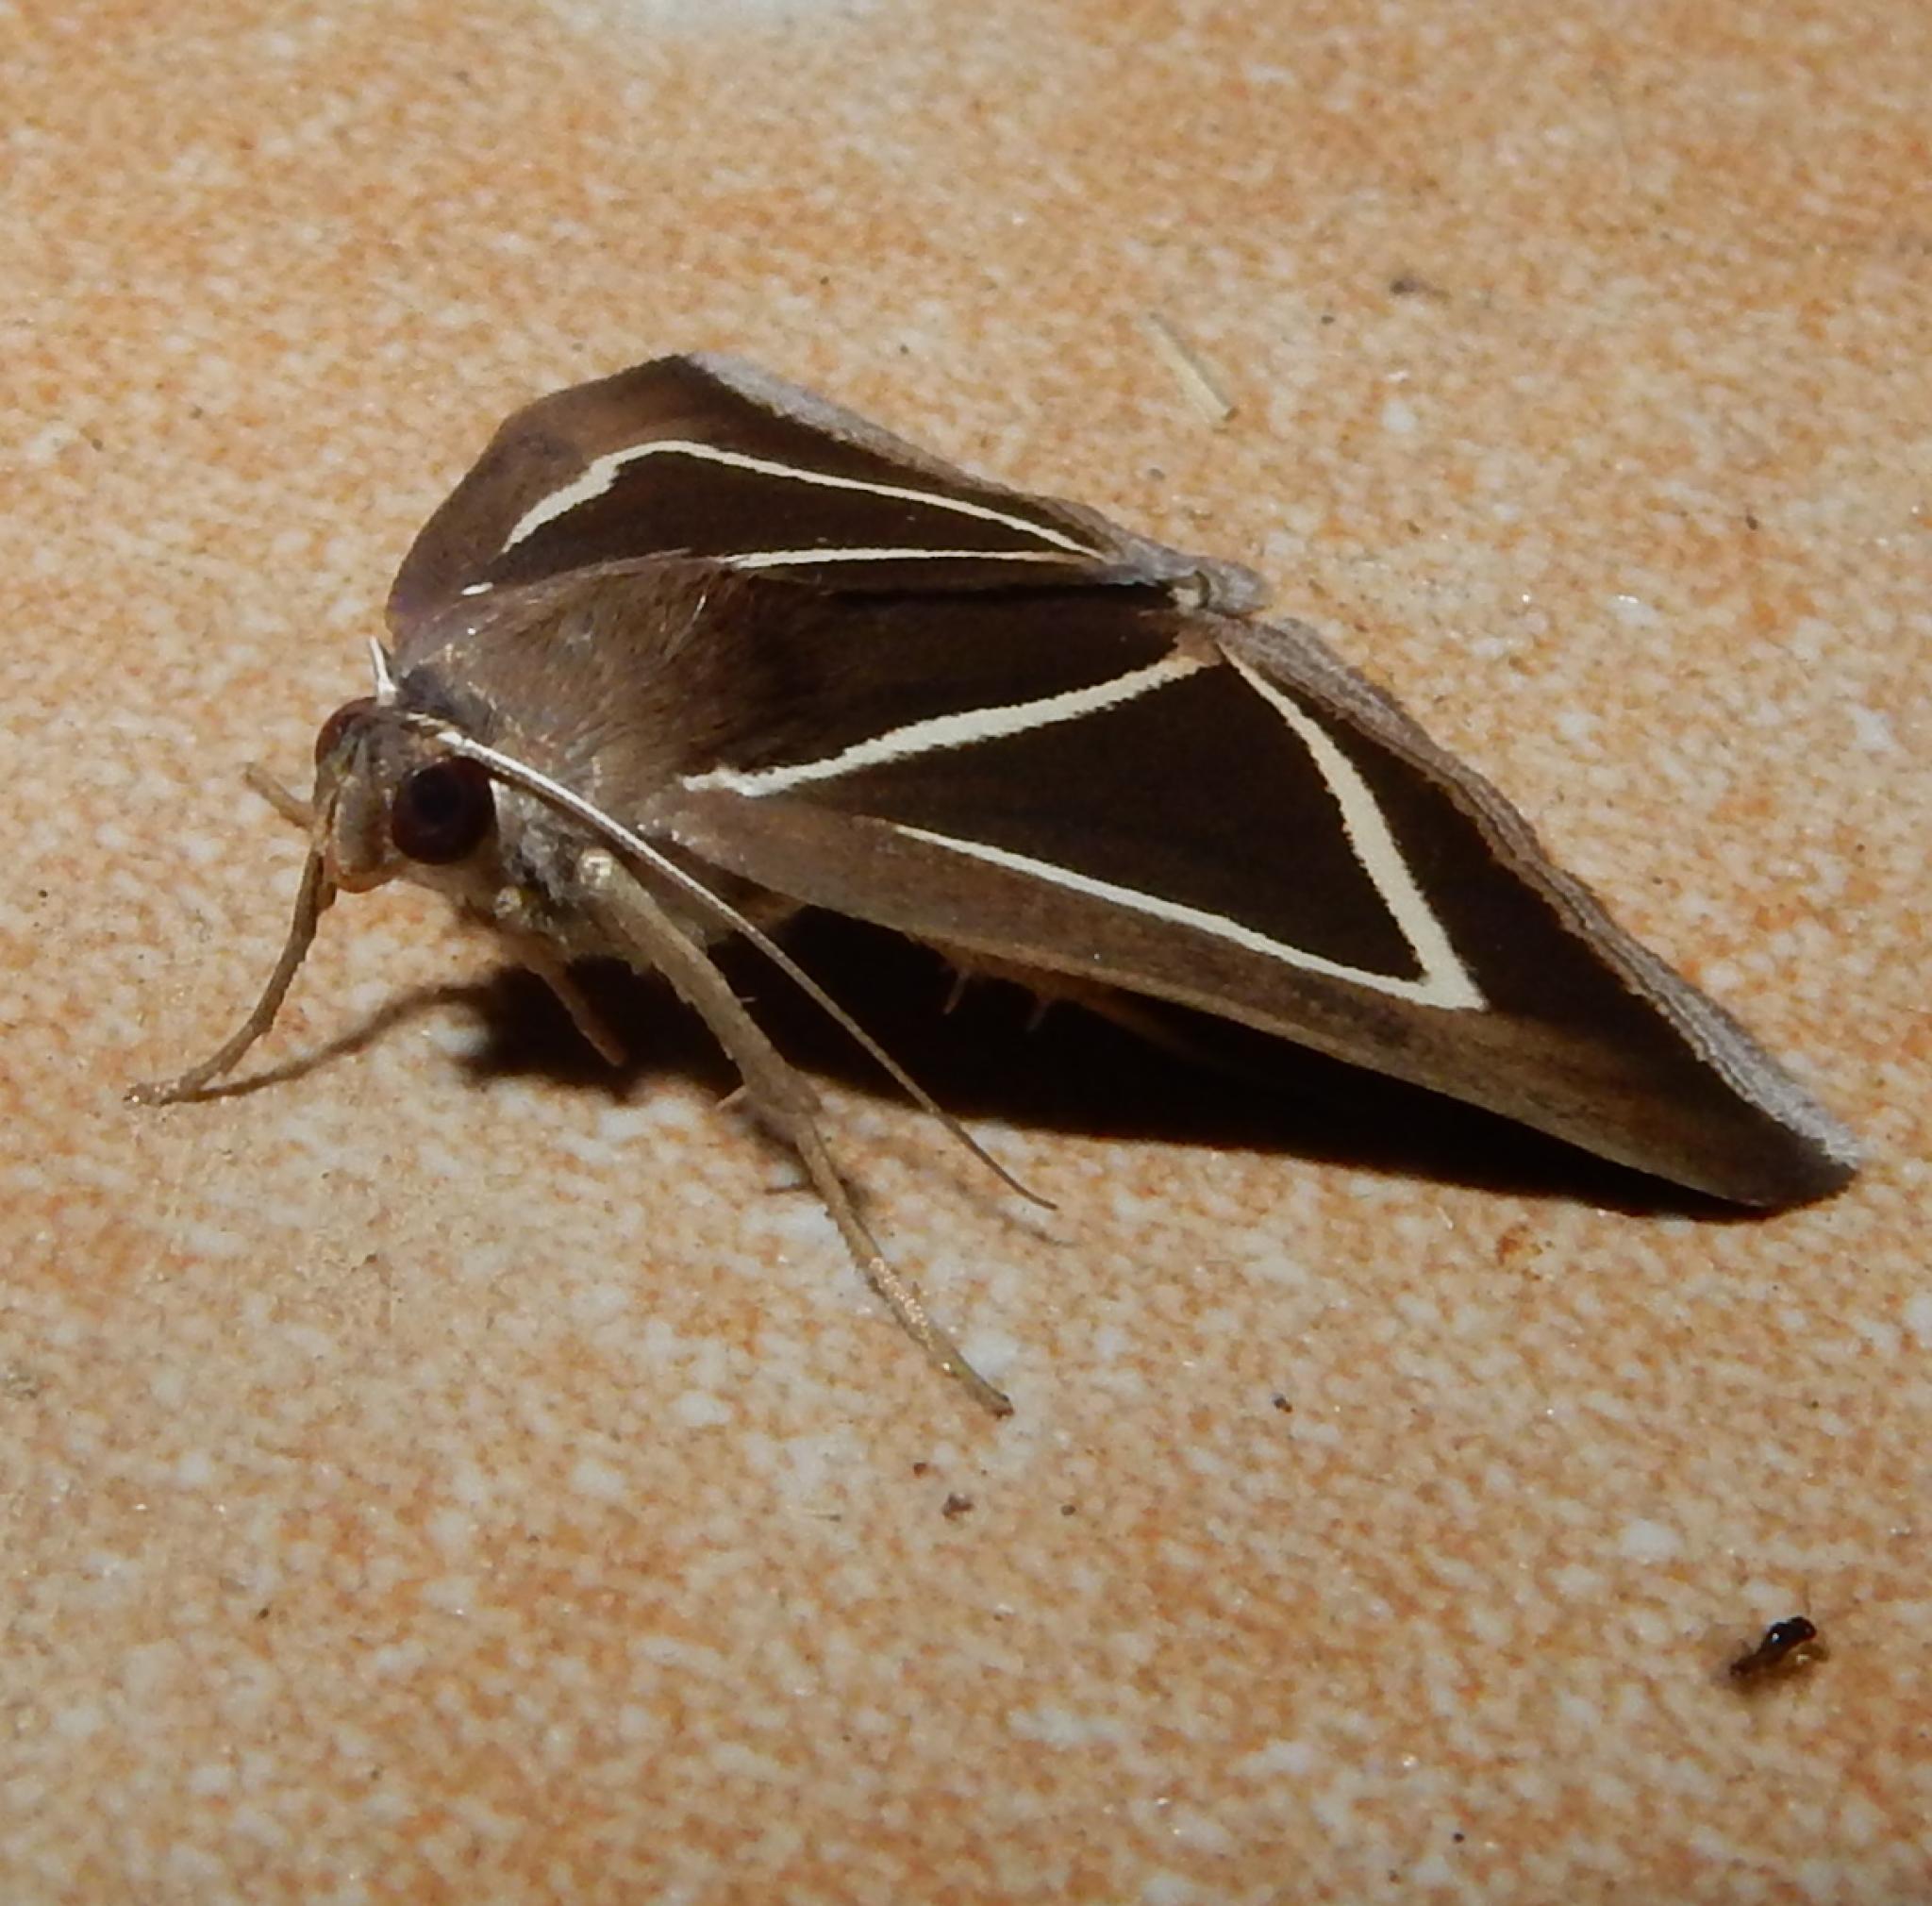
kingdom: Animalia
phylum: Arthropoda
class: Insecta
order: Lepidoptera
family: Erebidae
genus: Chalciope
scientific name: Chalciope delta
